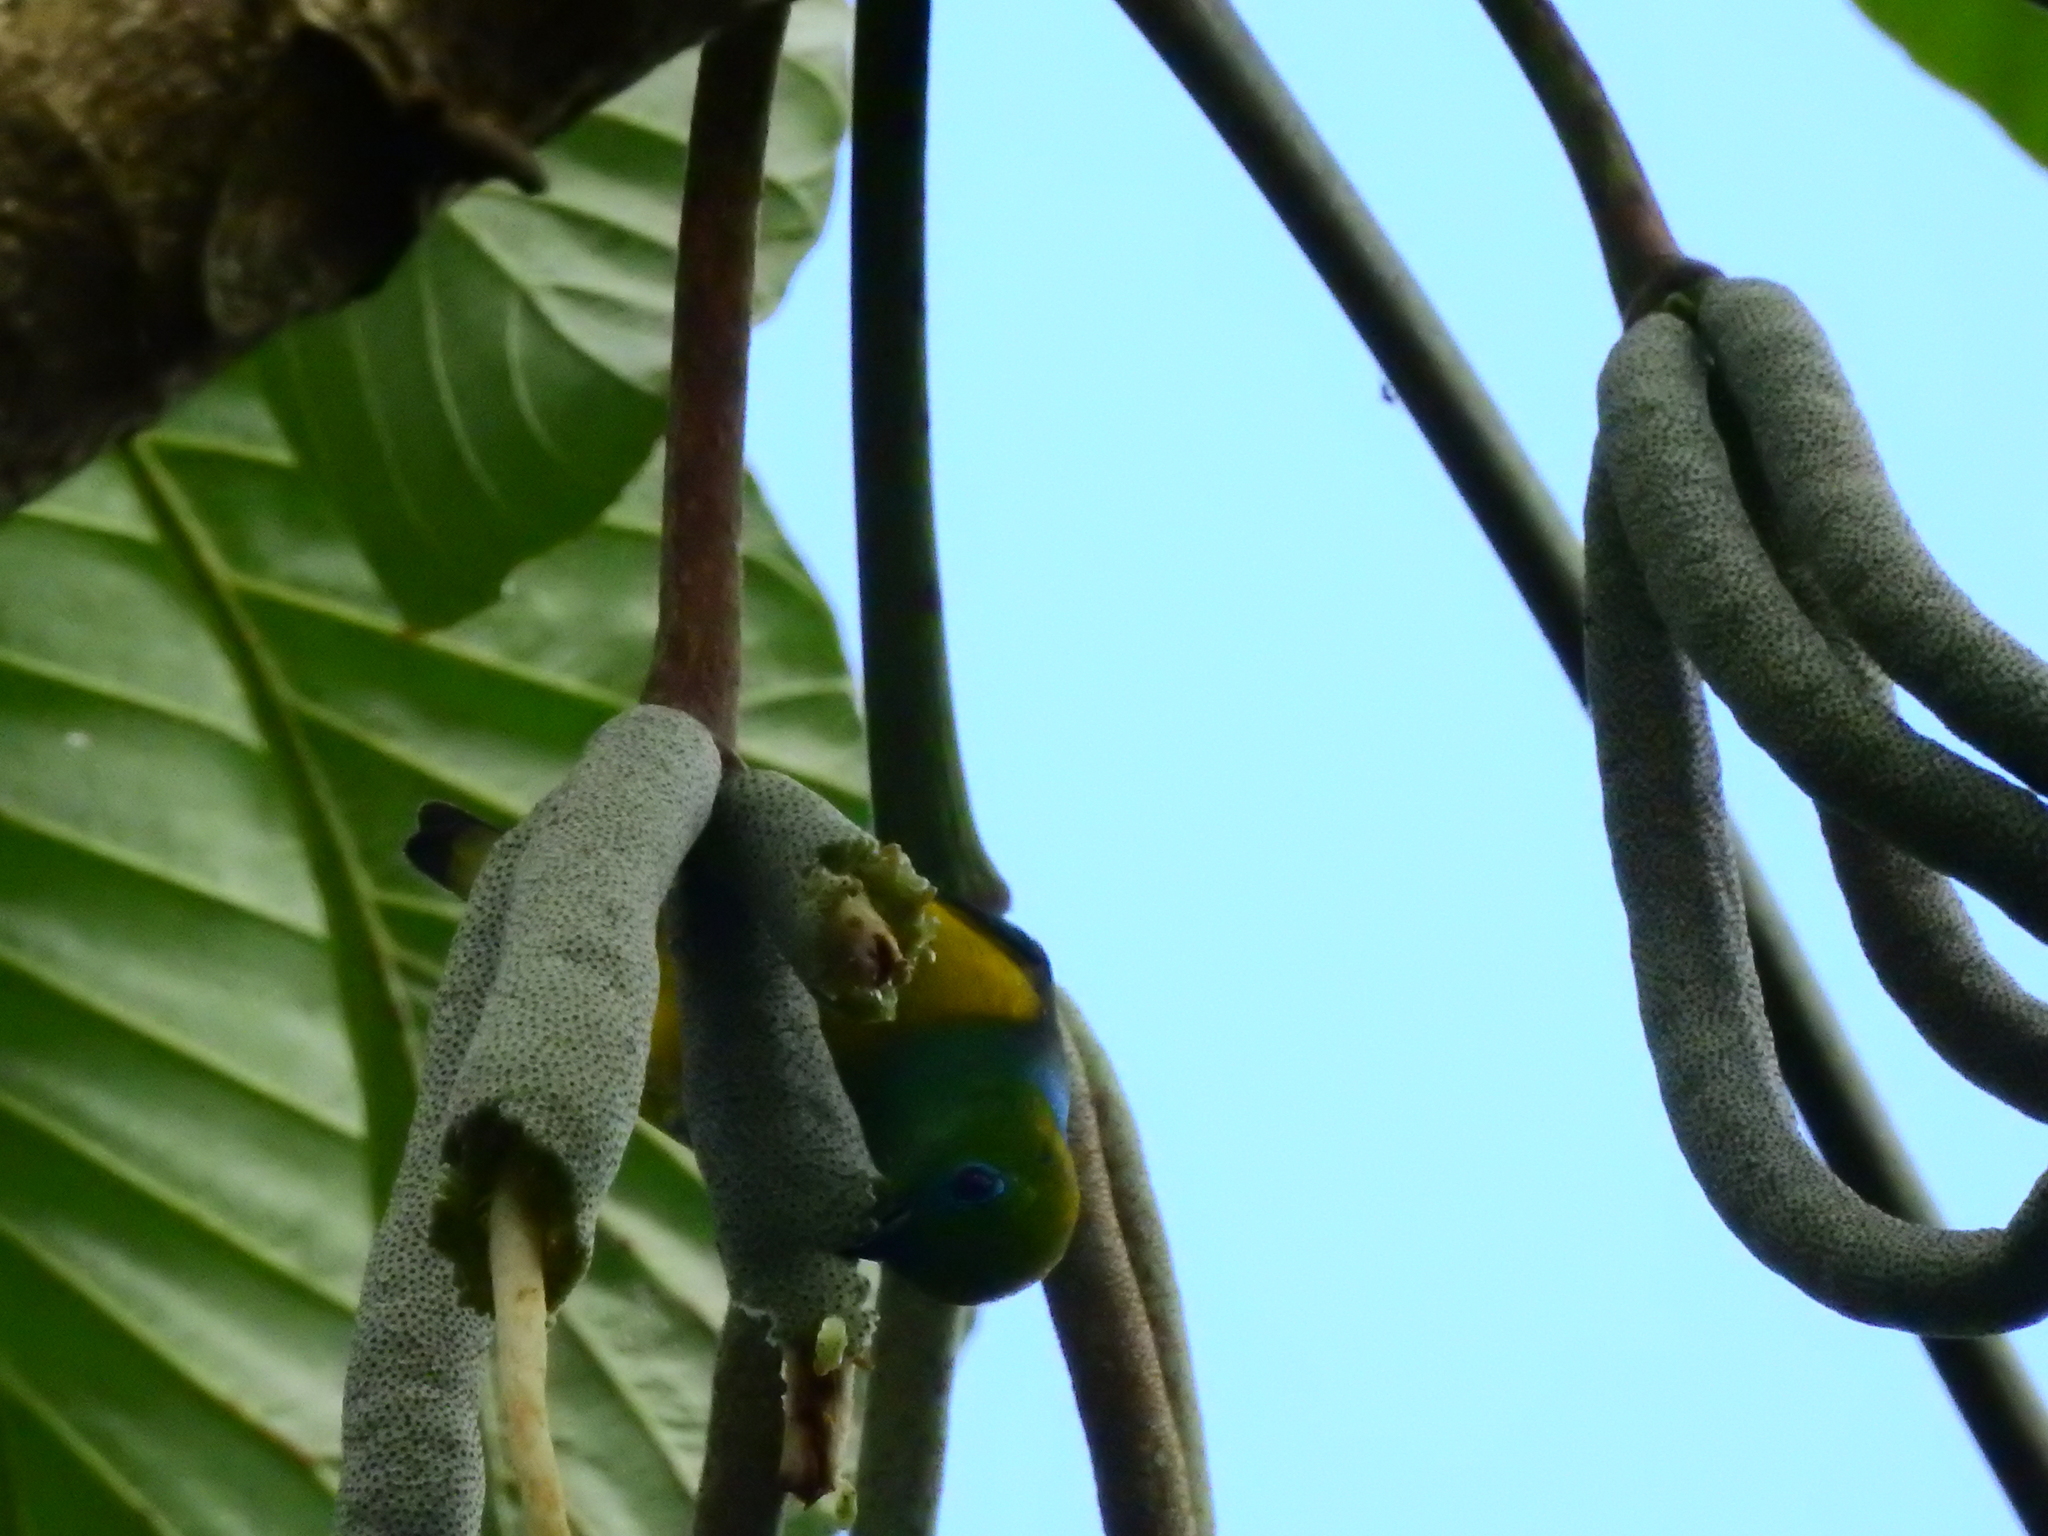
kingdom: Animalia
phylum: Chordata
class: Aves
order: Passeriformes
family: Fringillidae
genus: Chlorophonia
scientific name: Chlorophonia cyanea
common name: Blue-naped chlorophonia
